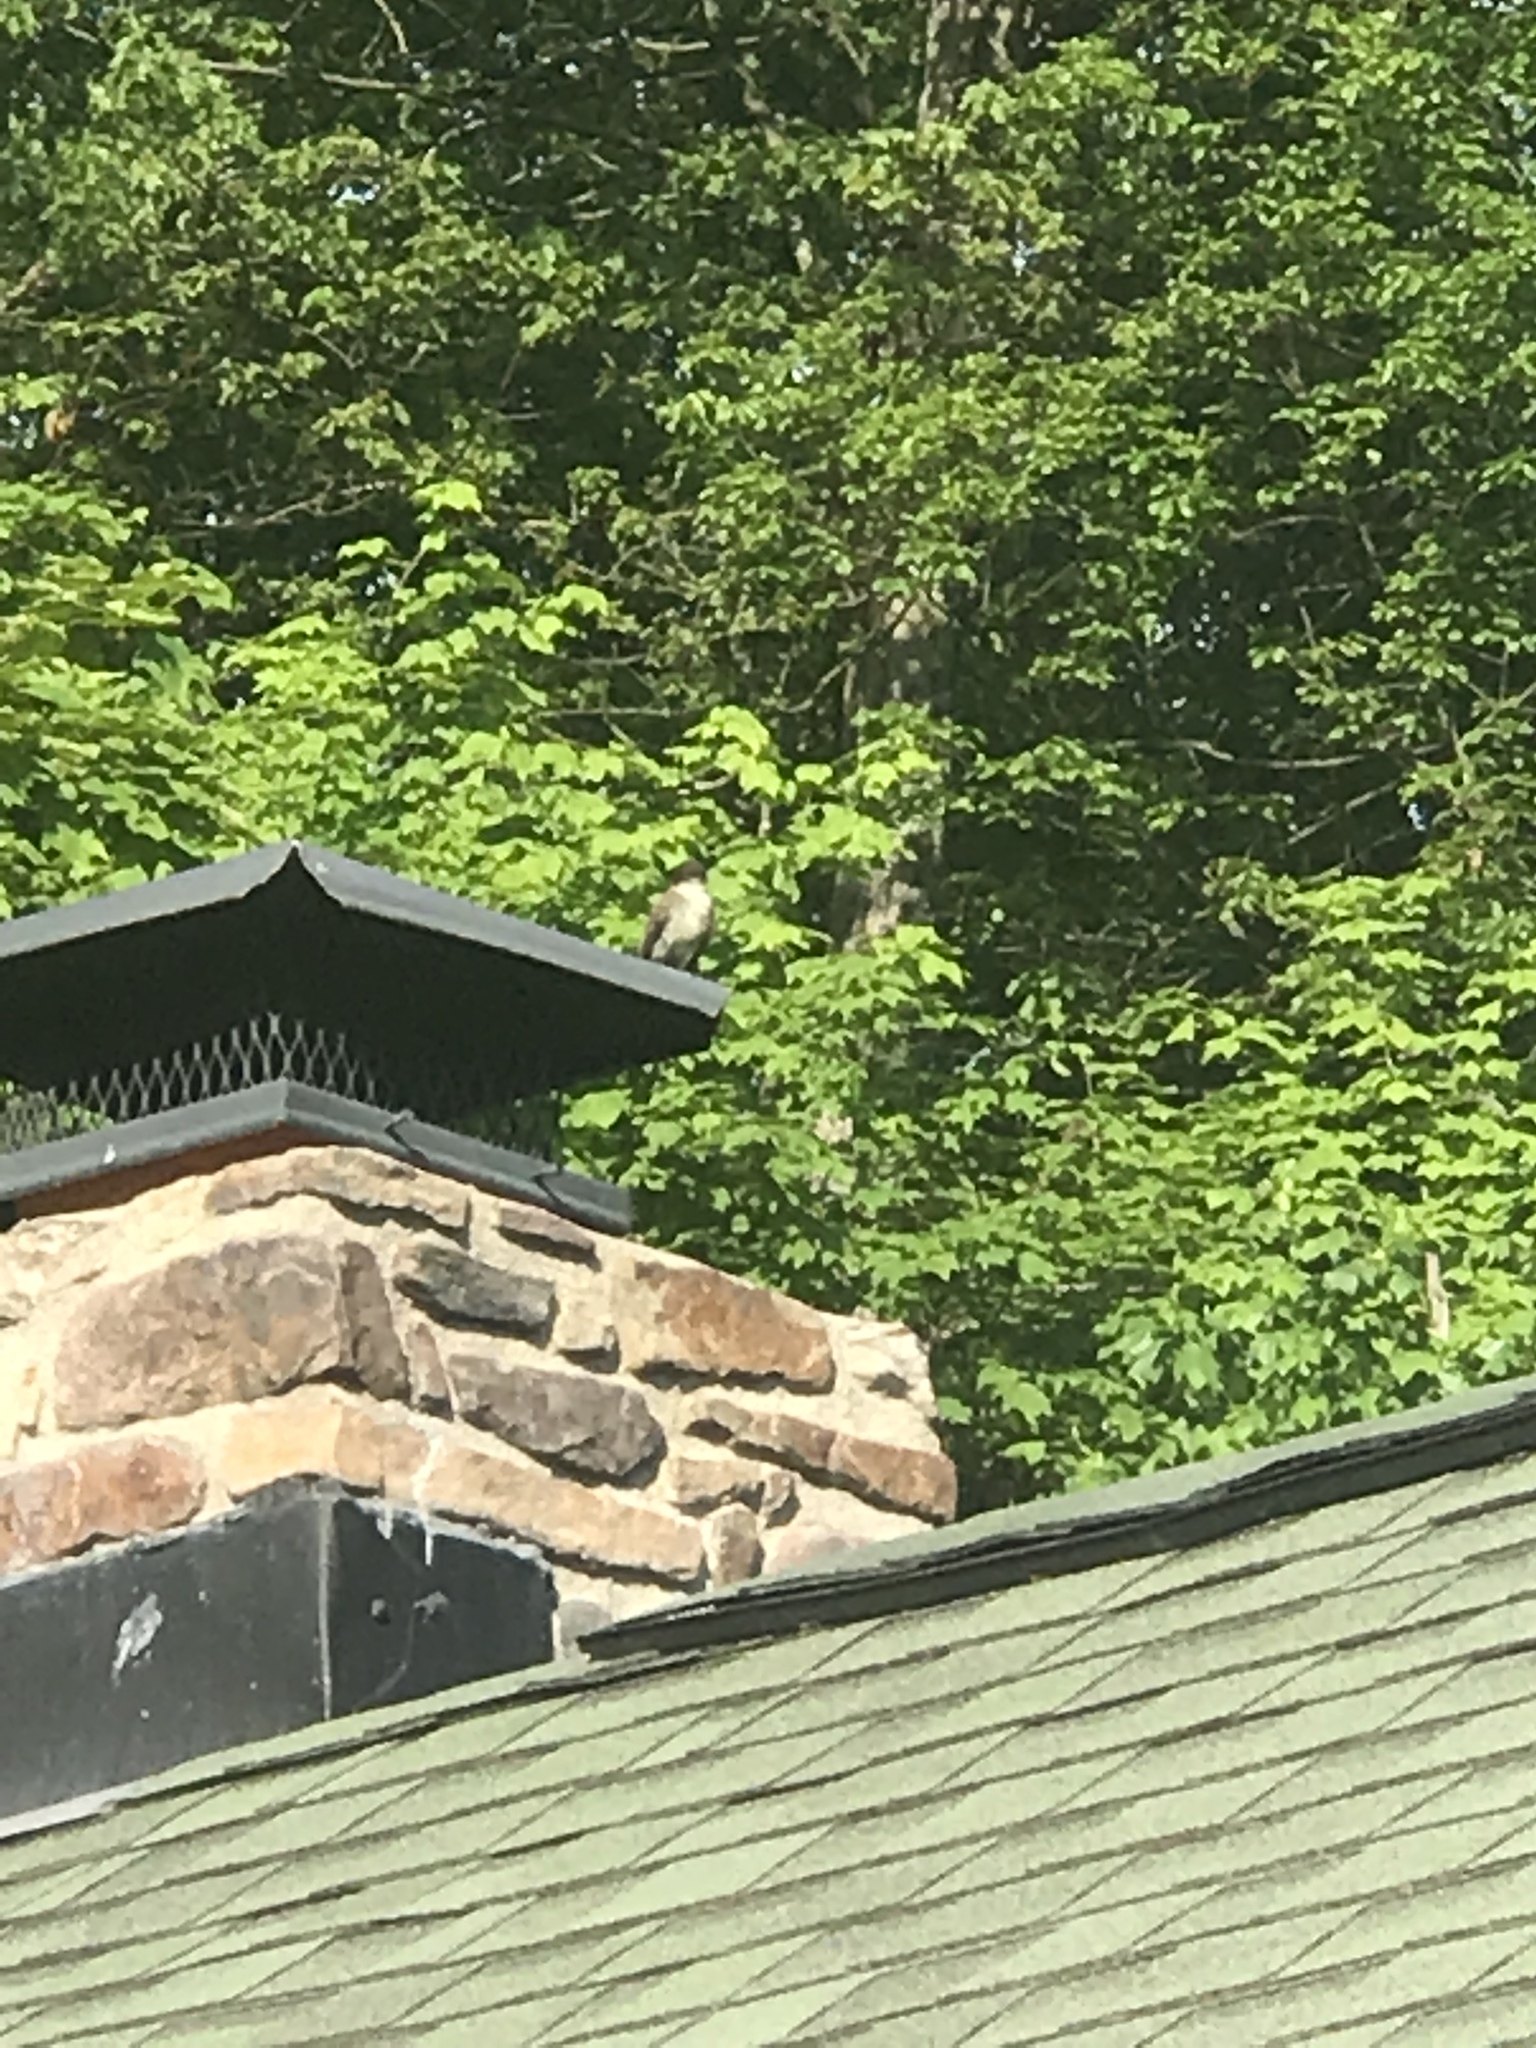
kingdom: Animalia
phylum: Chordata
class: Aves
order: Passeriformes
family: Tyrannidae
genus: Sayornis
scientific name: Sayornis phoebe
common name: Eastern phoebe
